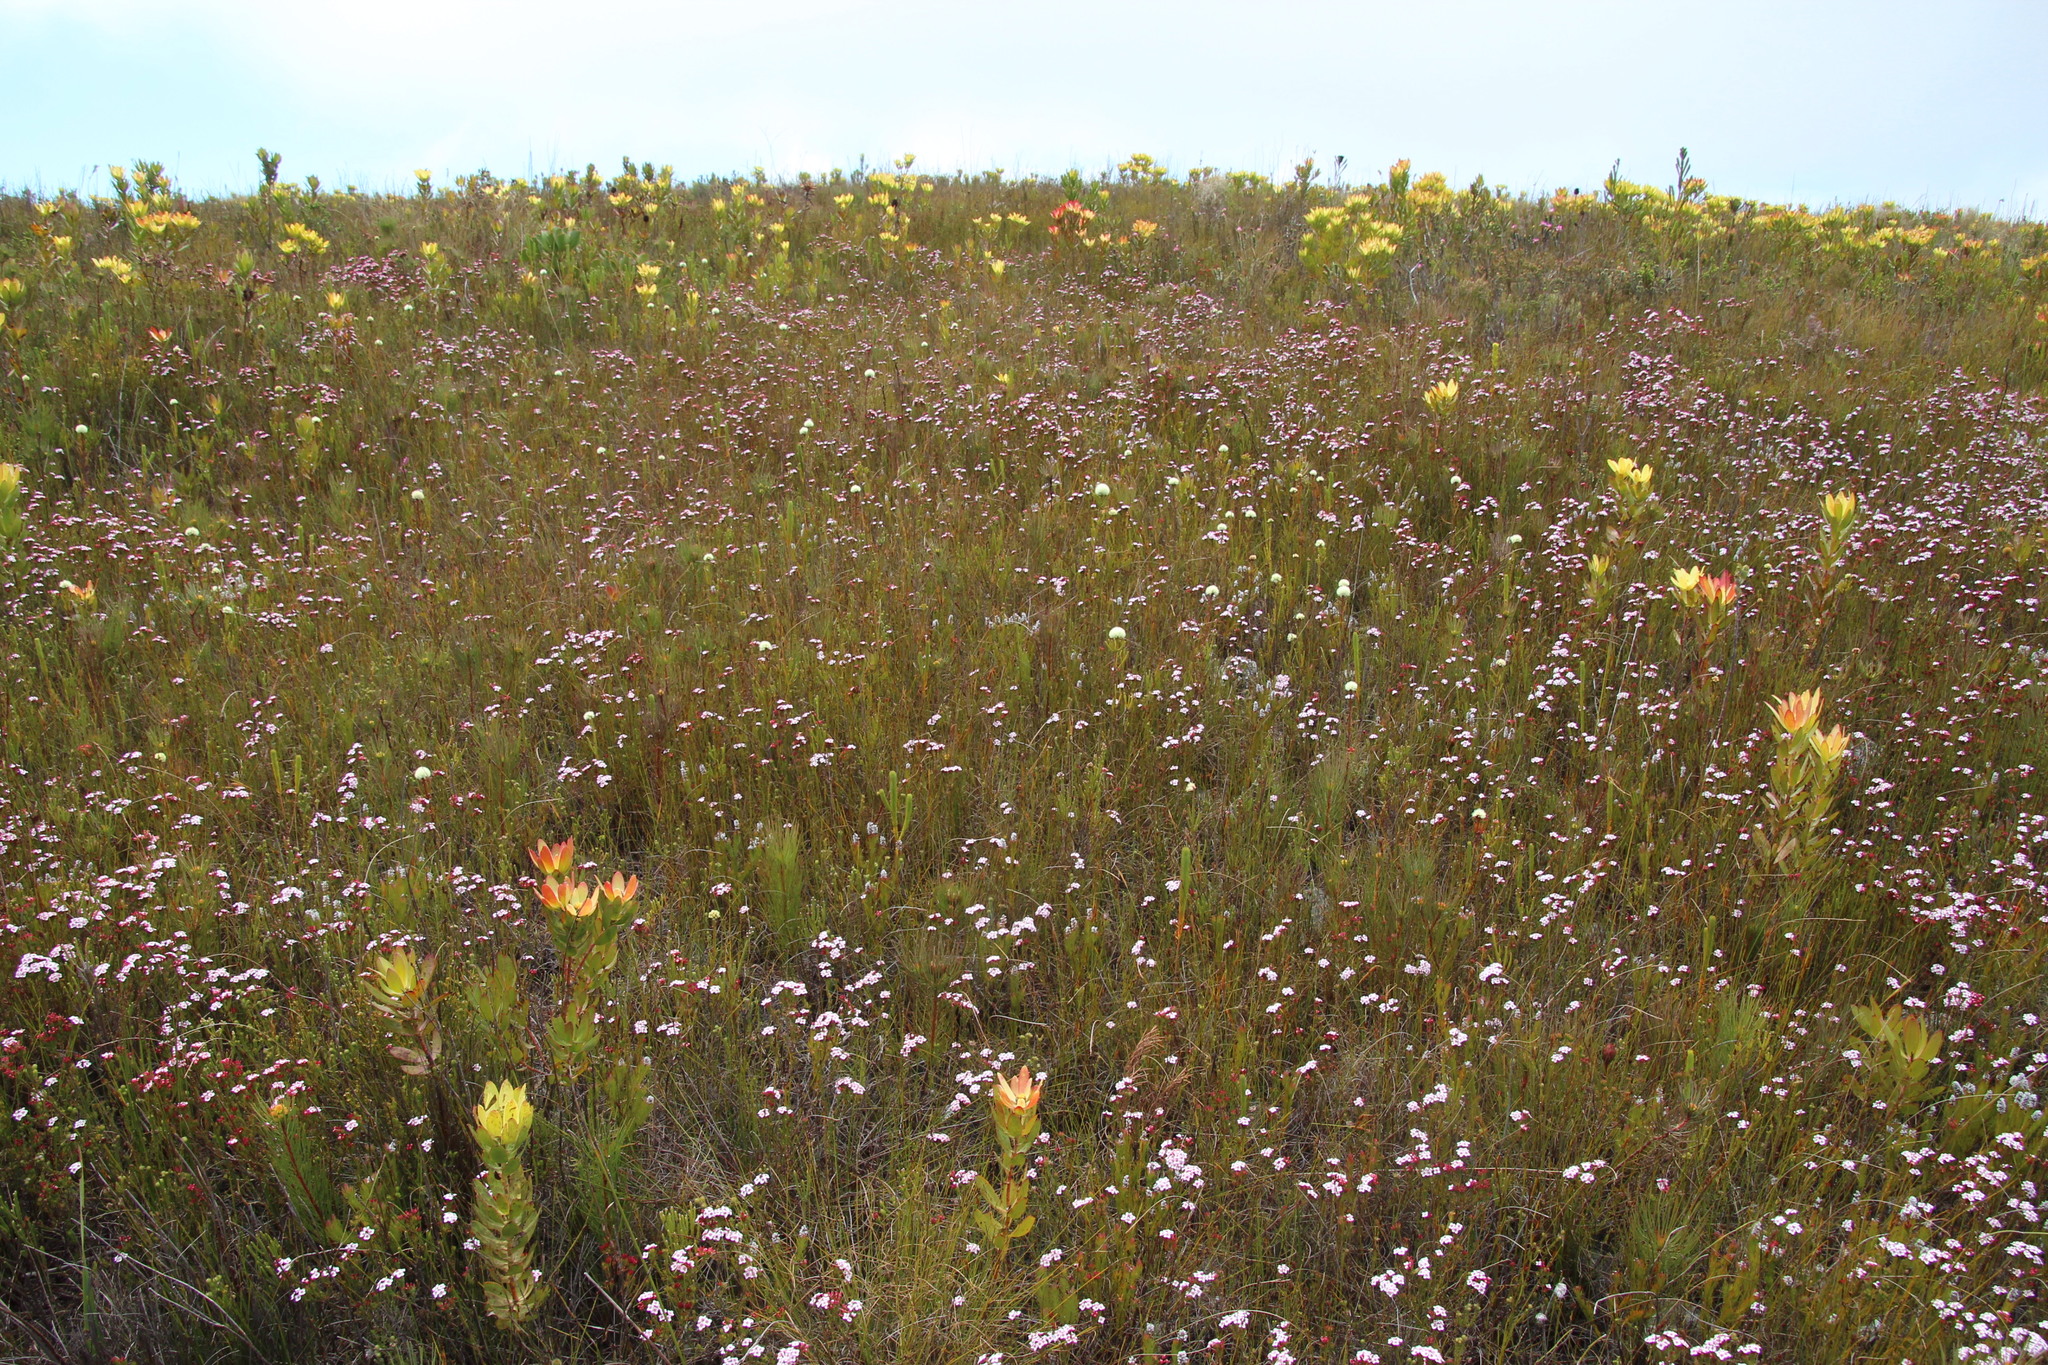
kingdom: Plantae
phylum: Tracheophyta
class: Magnoliopsida
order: Ericales
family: Ericaceae
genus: Erica
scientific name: Erica fastigiata
